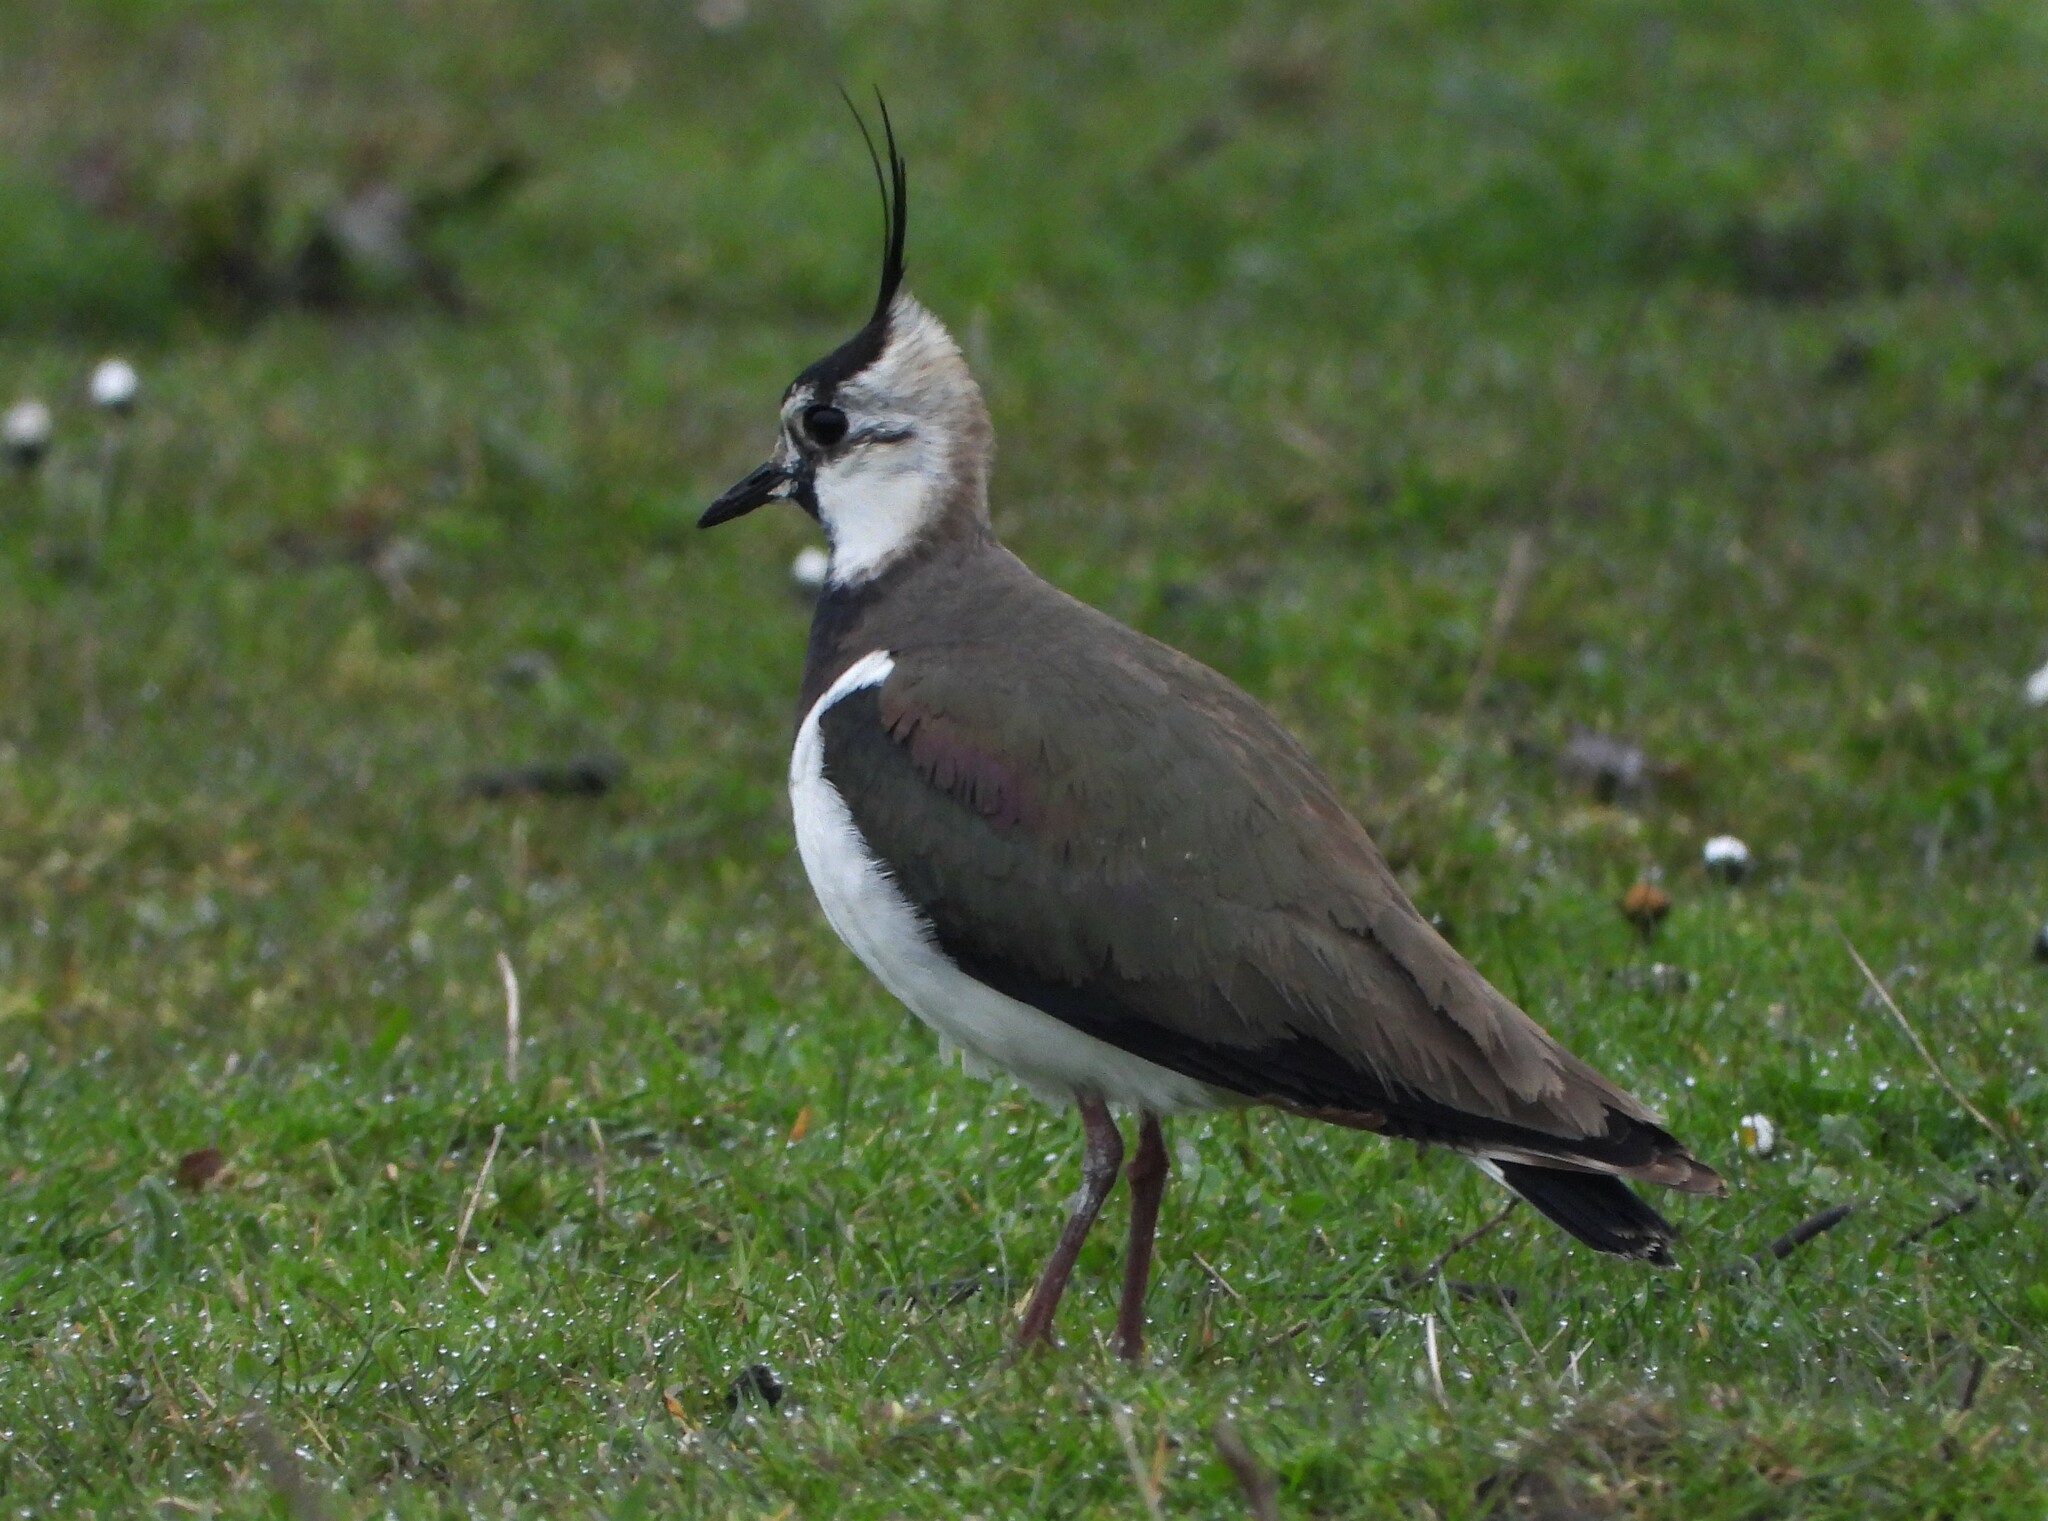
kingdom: Animalia
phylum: Chordata
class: Aves
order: Charadriiformes
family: Charadriidae
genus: Vanellus
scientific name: Vanellus vanellus
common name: Northern lapwing
